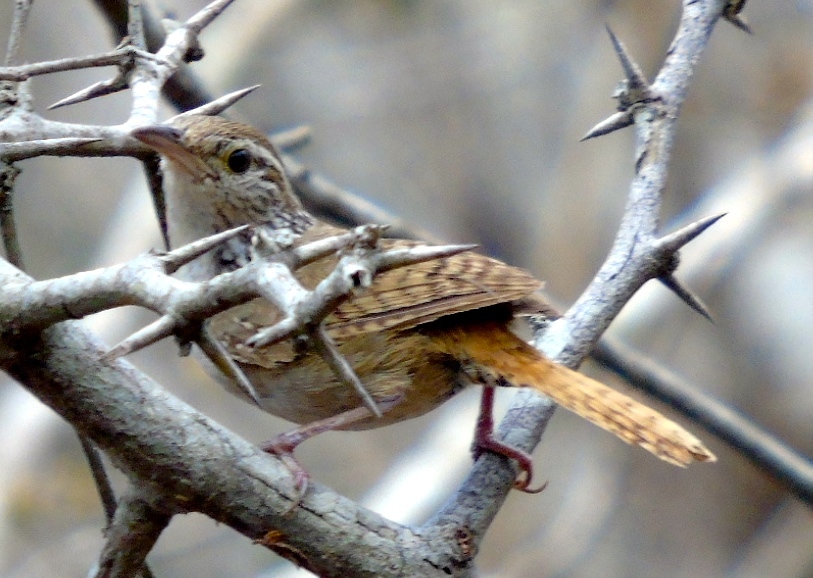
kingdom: Animalia
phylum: Chordata
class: Aves
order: Passeriformes
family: Troglodytidae
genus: Thryophilus
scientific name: Thryophilus sinaloa
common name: Sinaloa wren
